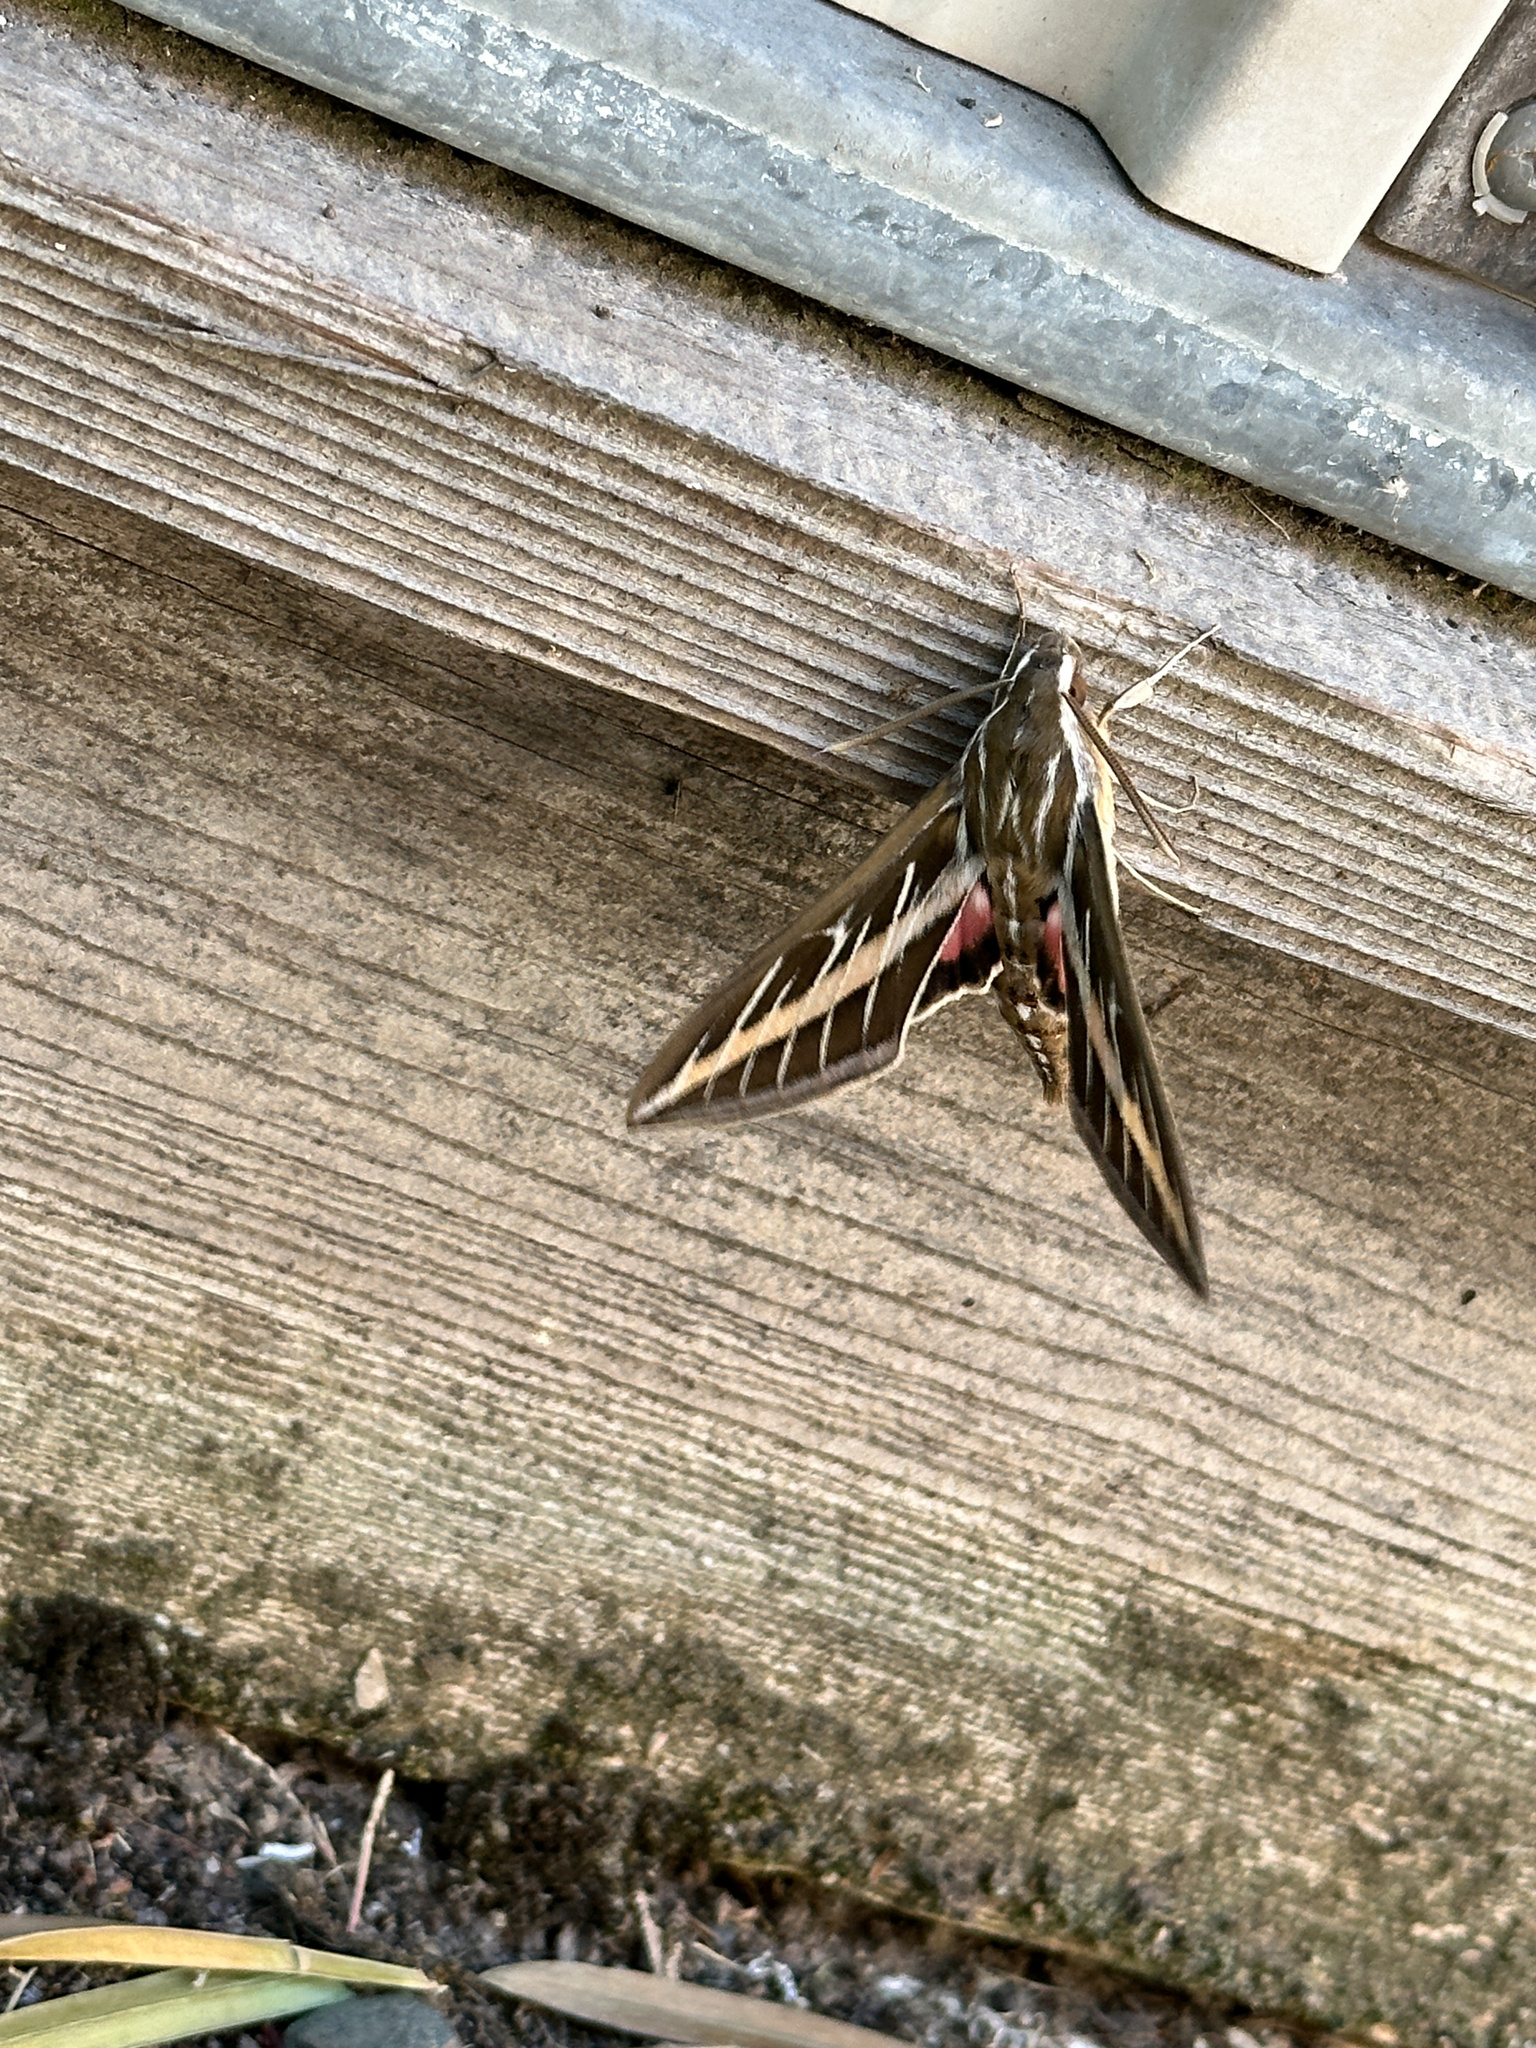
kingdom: Animalia
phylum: Arthropoda
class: Insecta
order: Lepidoptera
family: Sphingidae
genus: Hyles
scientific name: Hyles lineata
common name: White-lined sphinx
